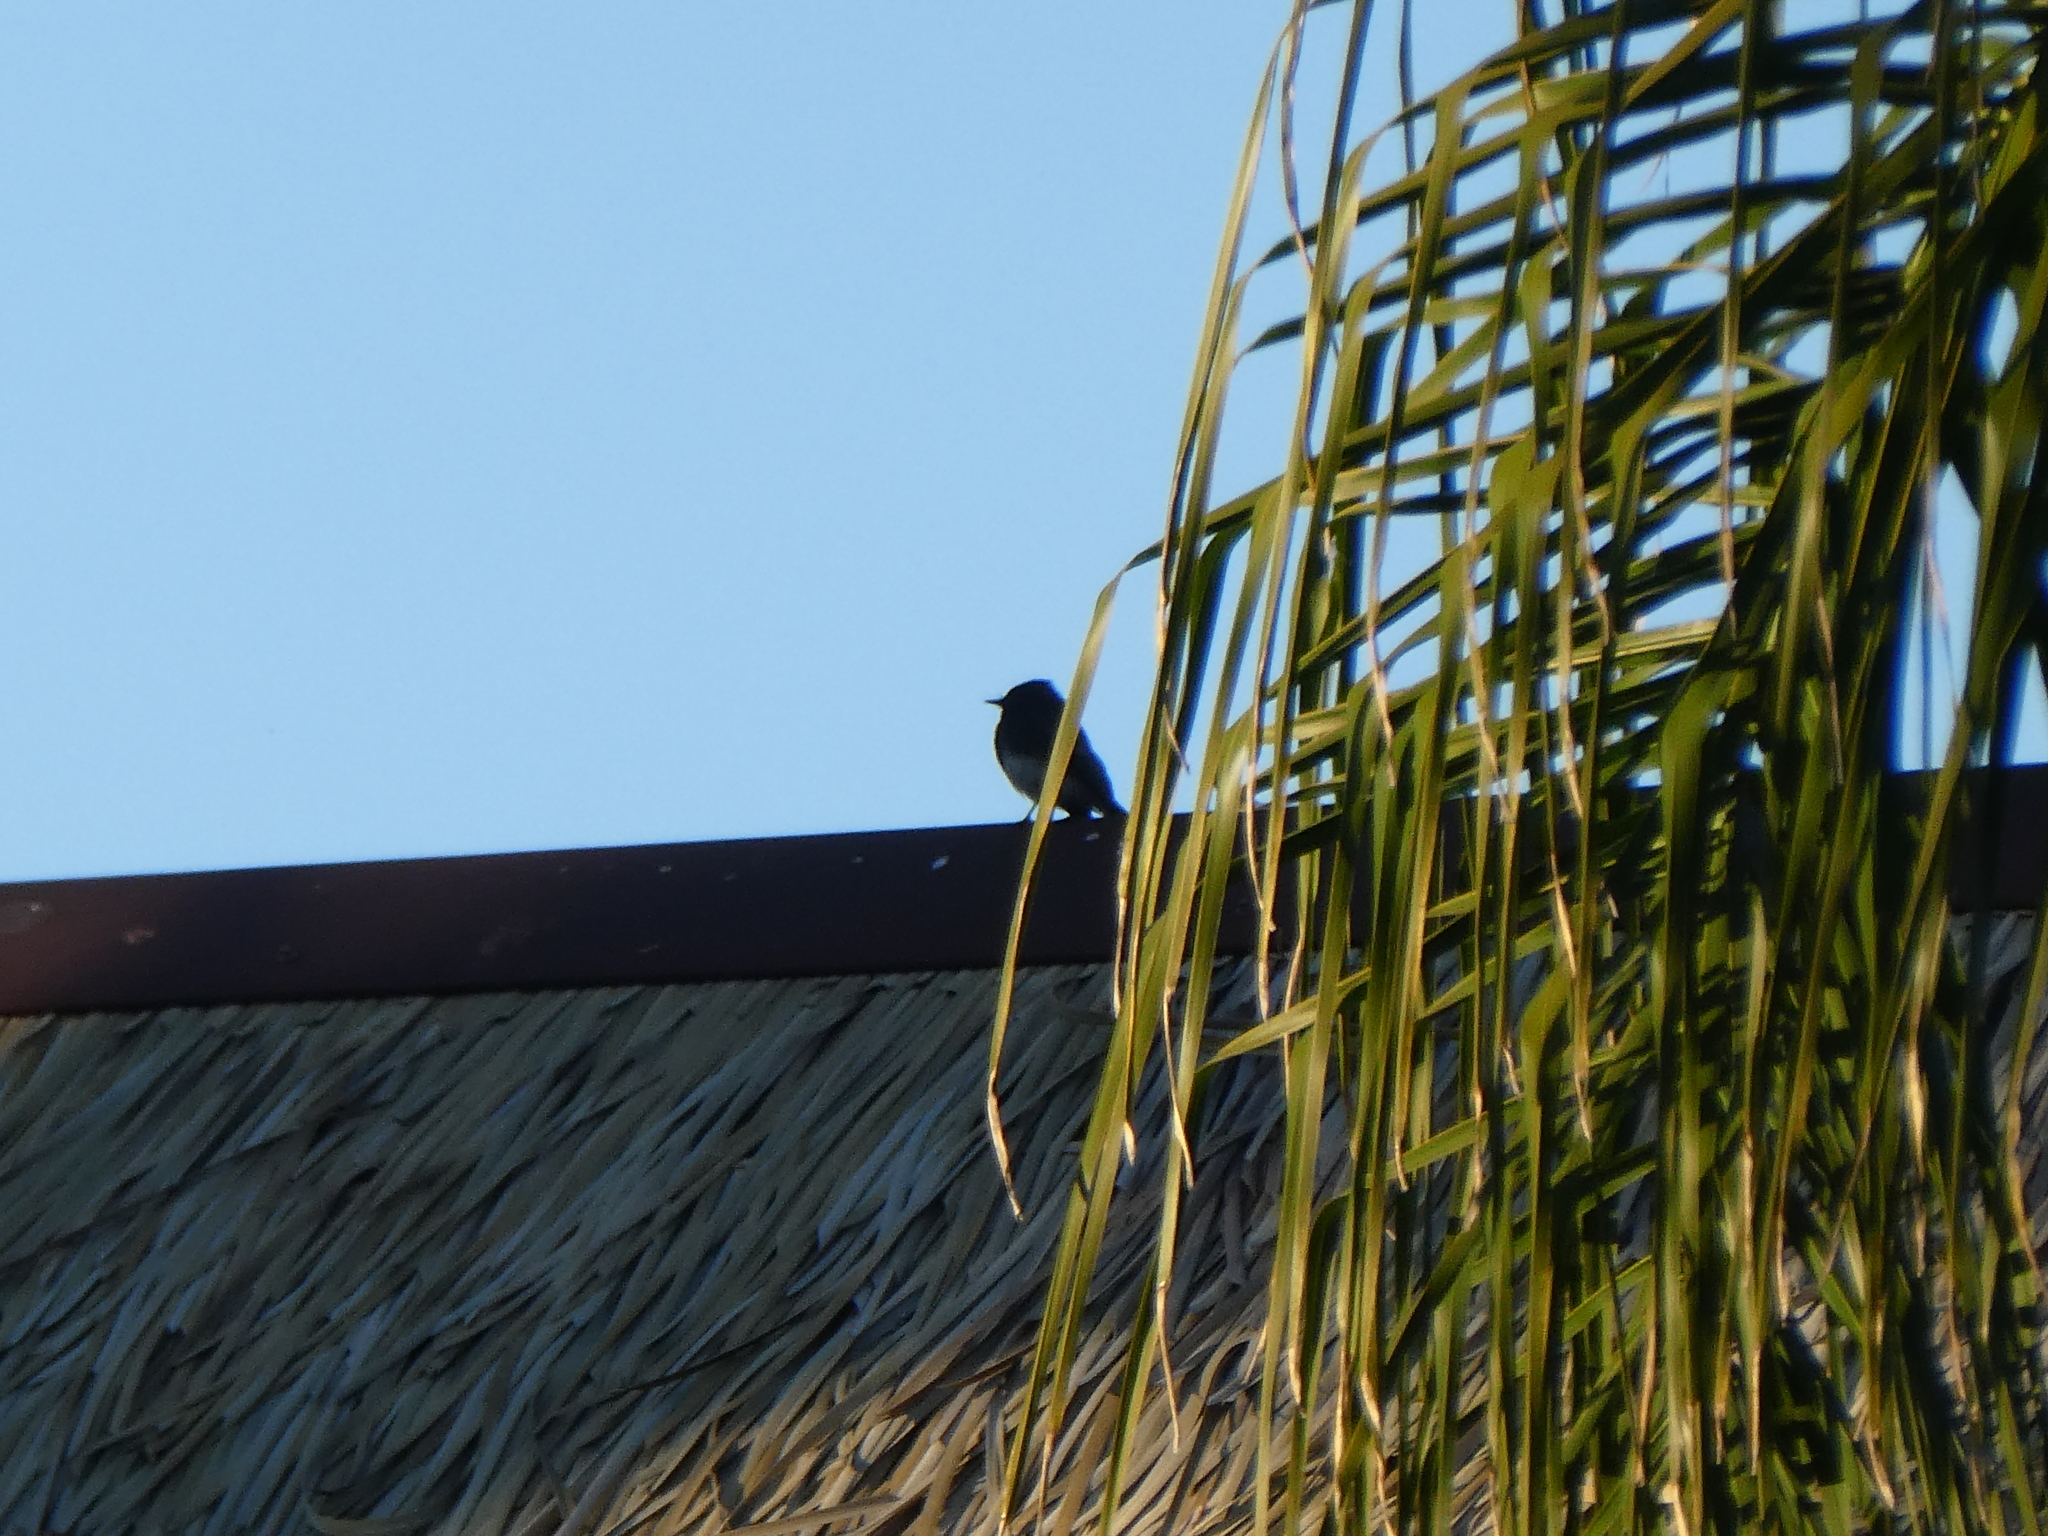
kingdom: Animalia
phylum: Chordata
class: Aves
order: Passeriformes
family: Tyrannidae
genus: Sayornis
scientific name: Sayornis nigricans
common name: Black phoebe
